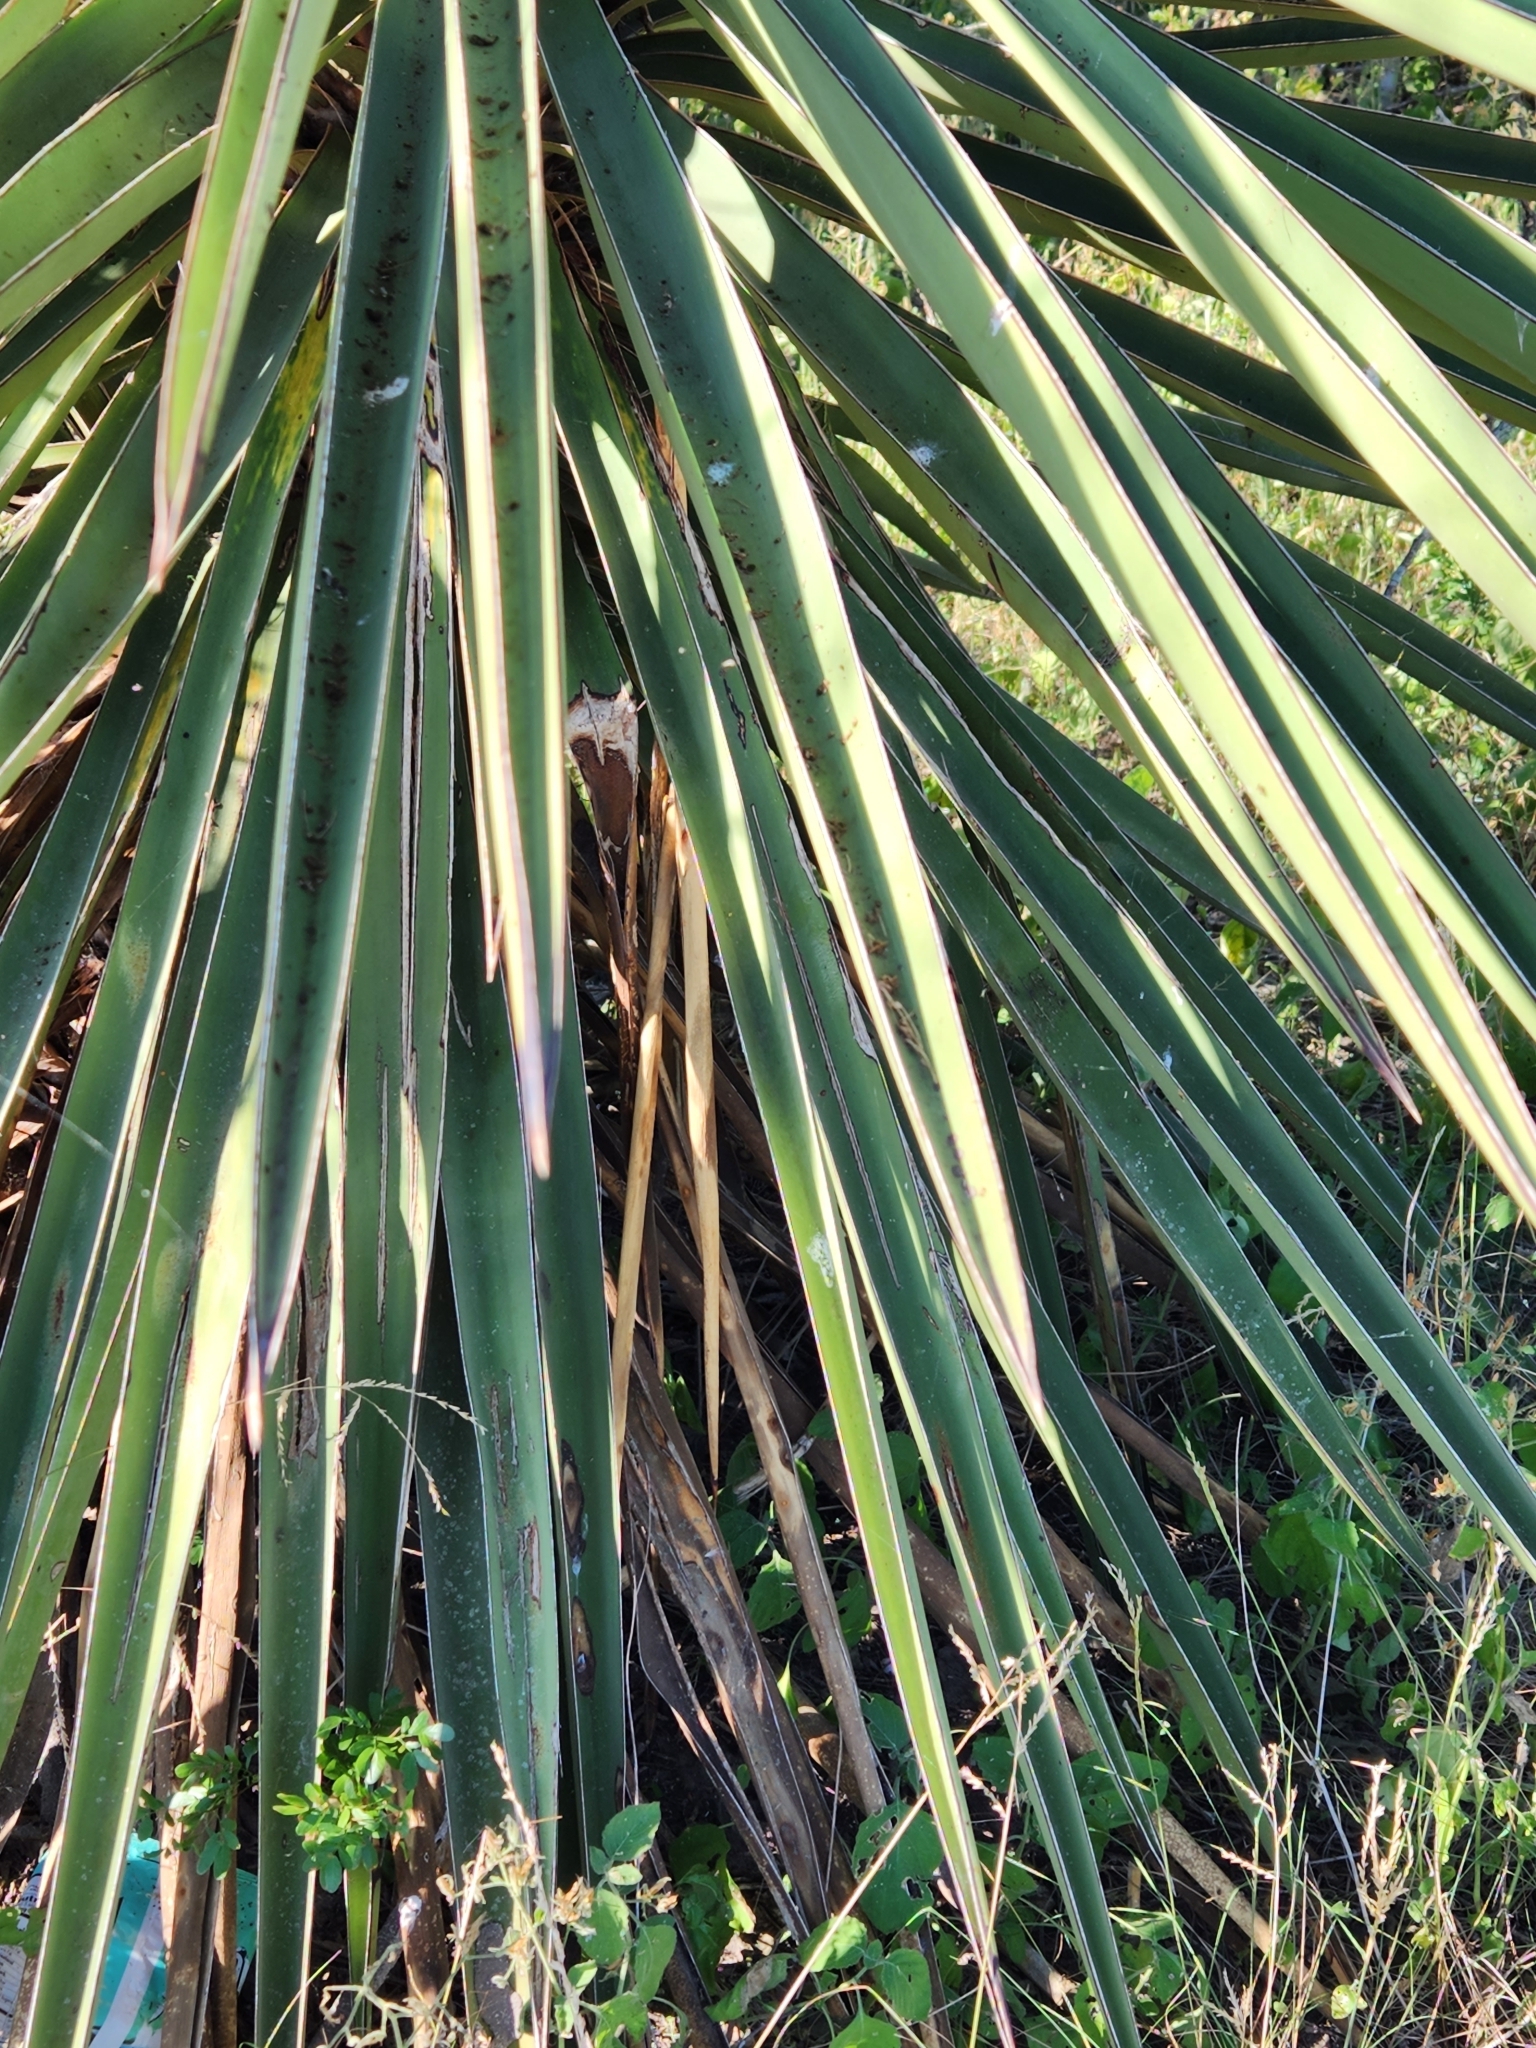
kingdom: Plantae
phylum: Tracheophyta
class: Liliopsida
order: Asparagales
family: Asparagaceae
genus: Yucca
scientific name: Yucca treculiana
